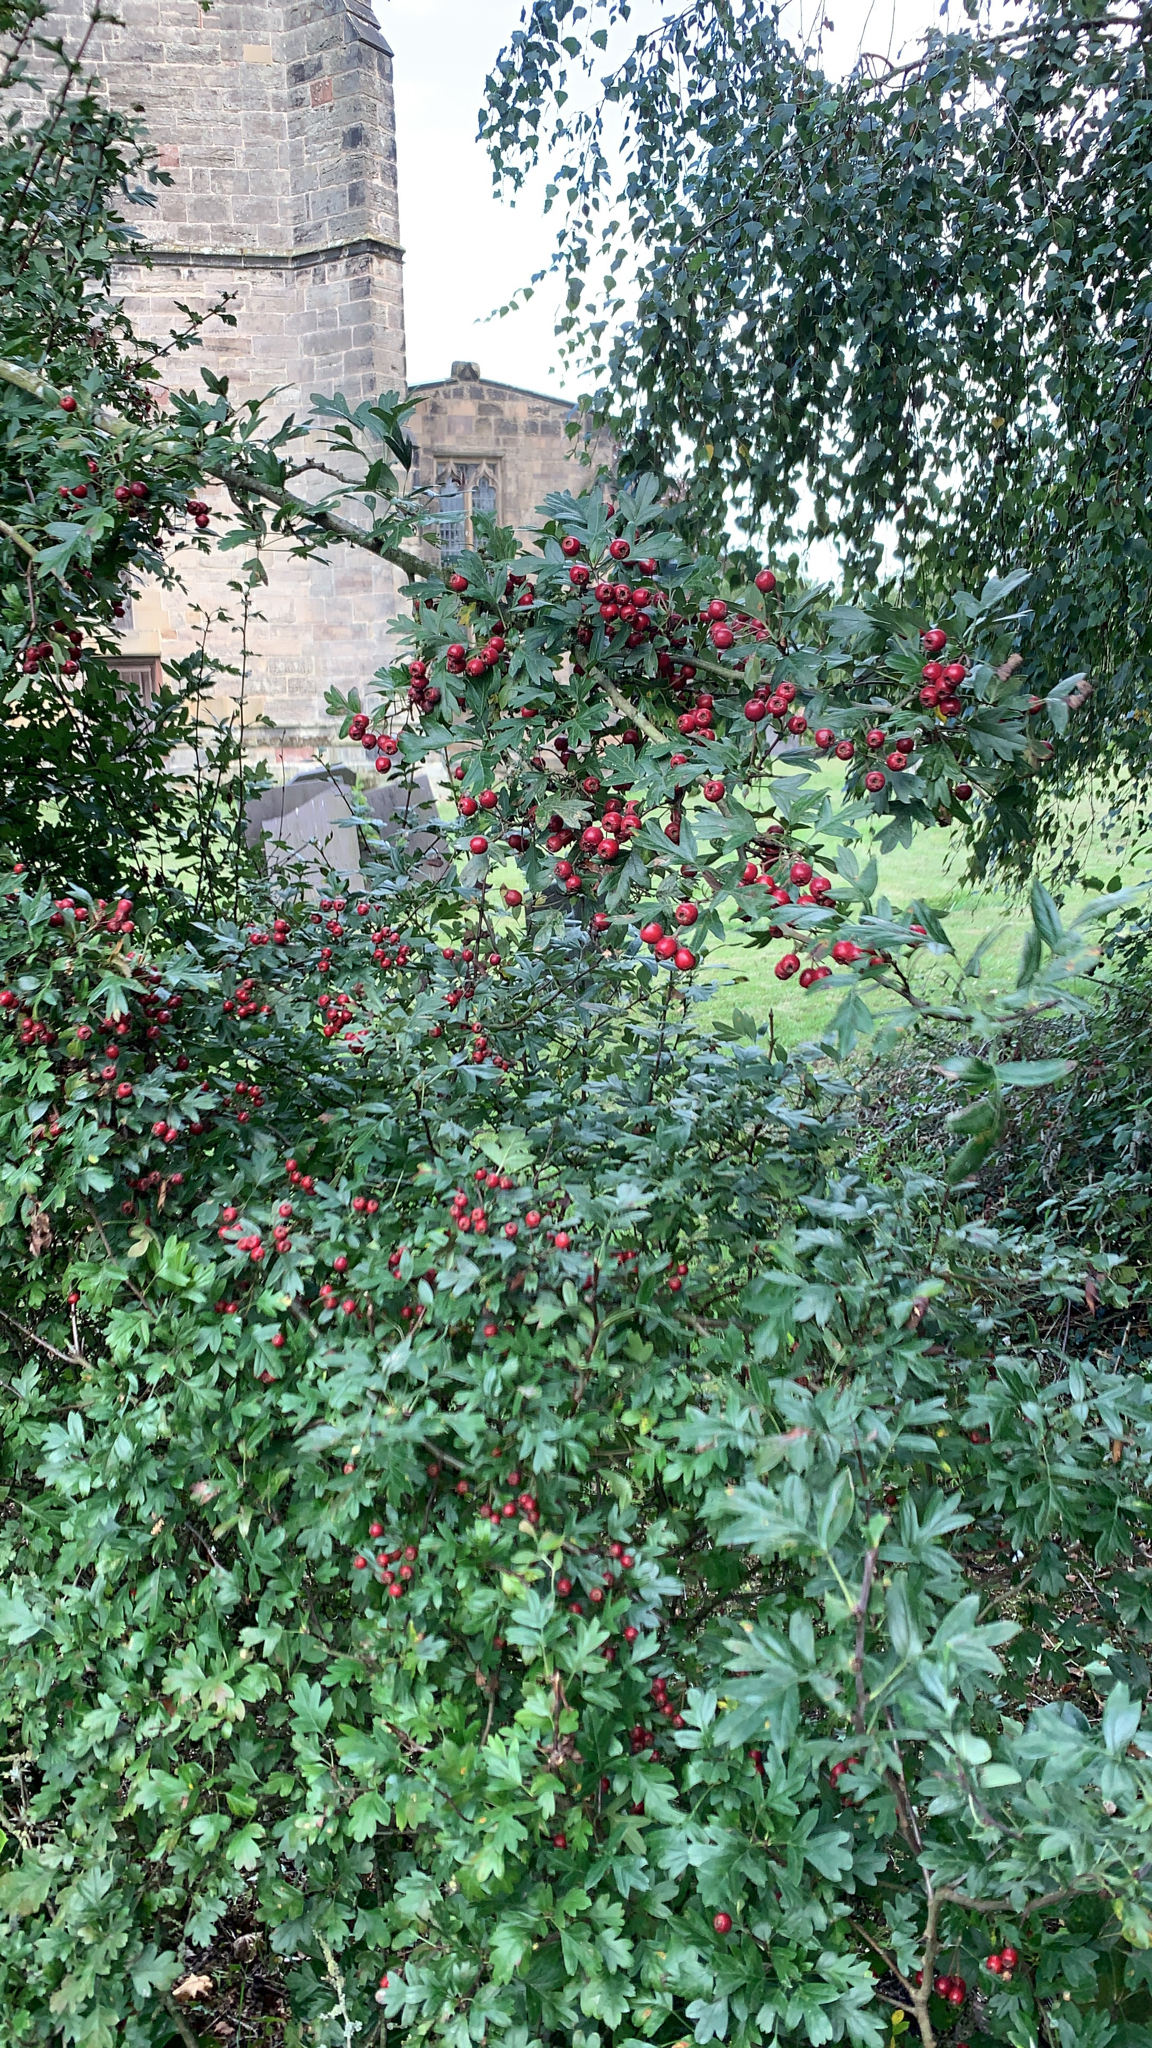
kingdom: Plantae
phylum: Tracheophyta
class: Magnoliopsida
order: Rosales
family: Rosaceae
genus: Crataegus
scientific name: Crataegus monogyna
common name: Hawthorn
